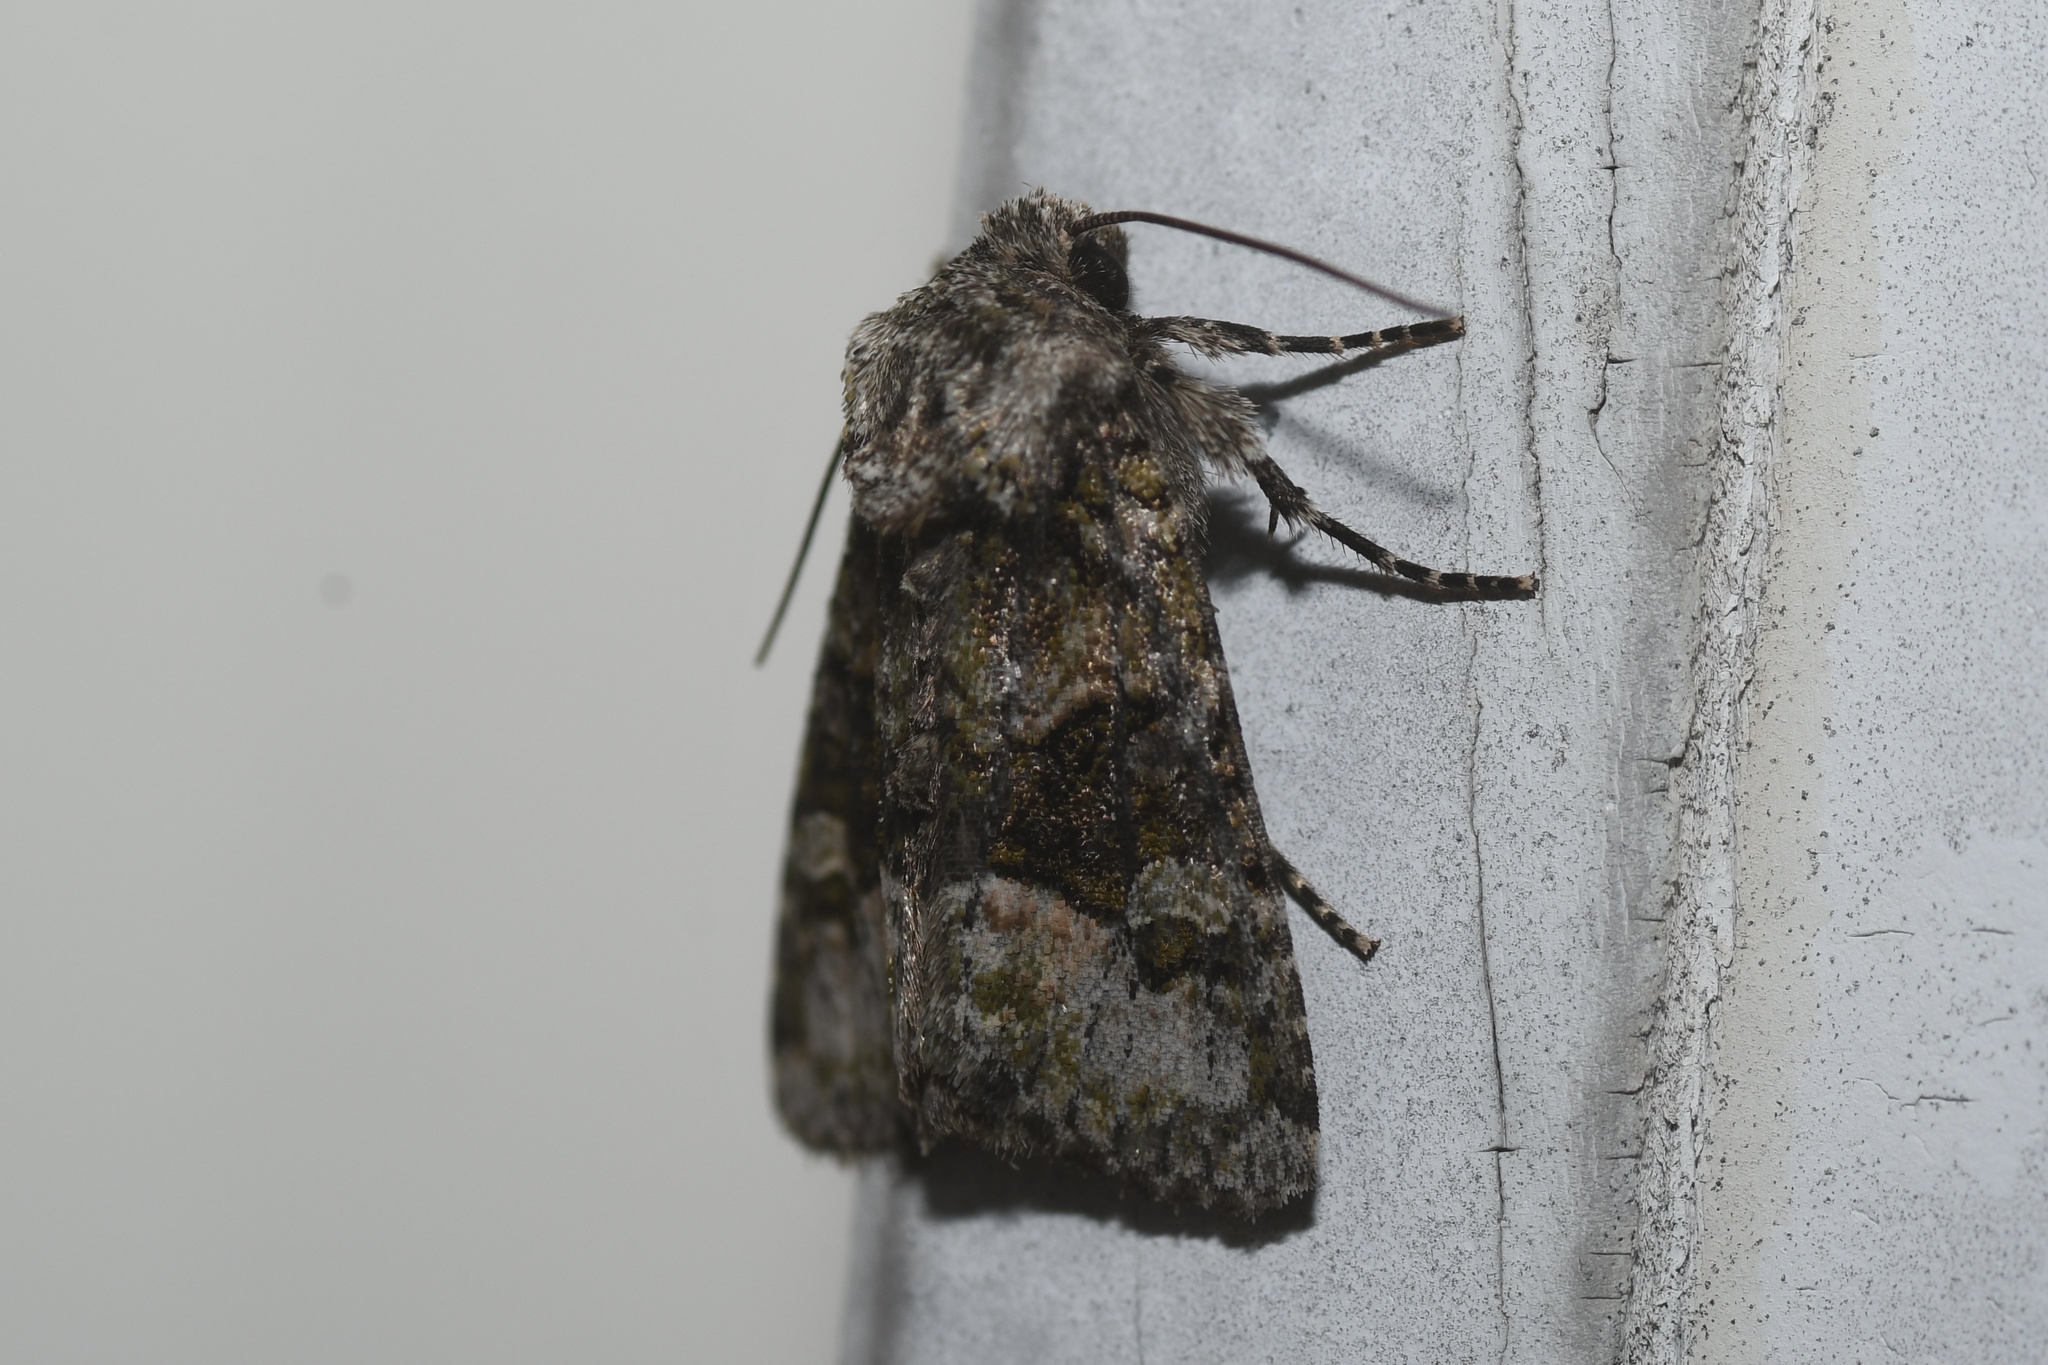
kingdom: Animalia
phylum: Arthropoda
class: Insecta
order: Lepidoptera
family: Noctuidae
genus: Lacinipolia
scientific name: Lacinipolia olivacea
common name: Olive arches moth
